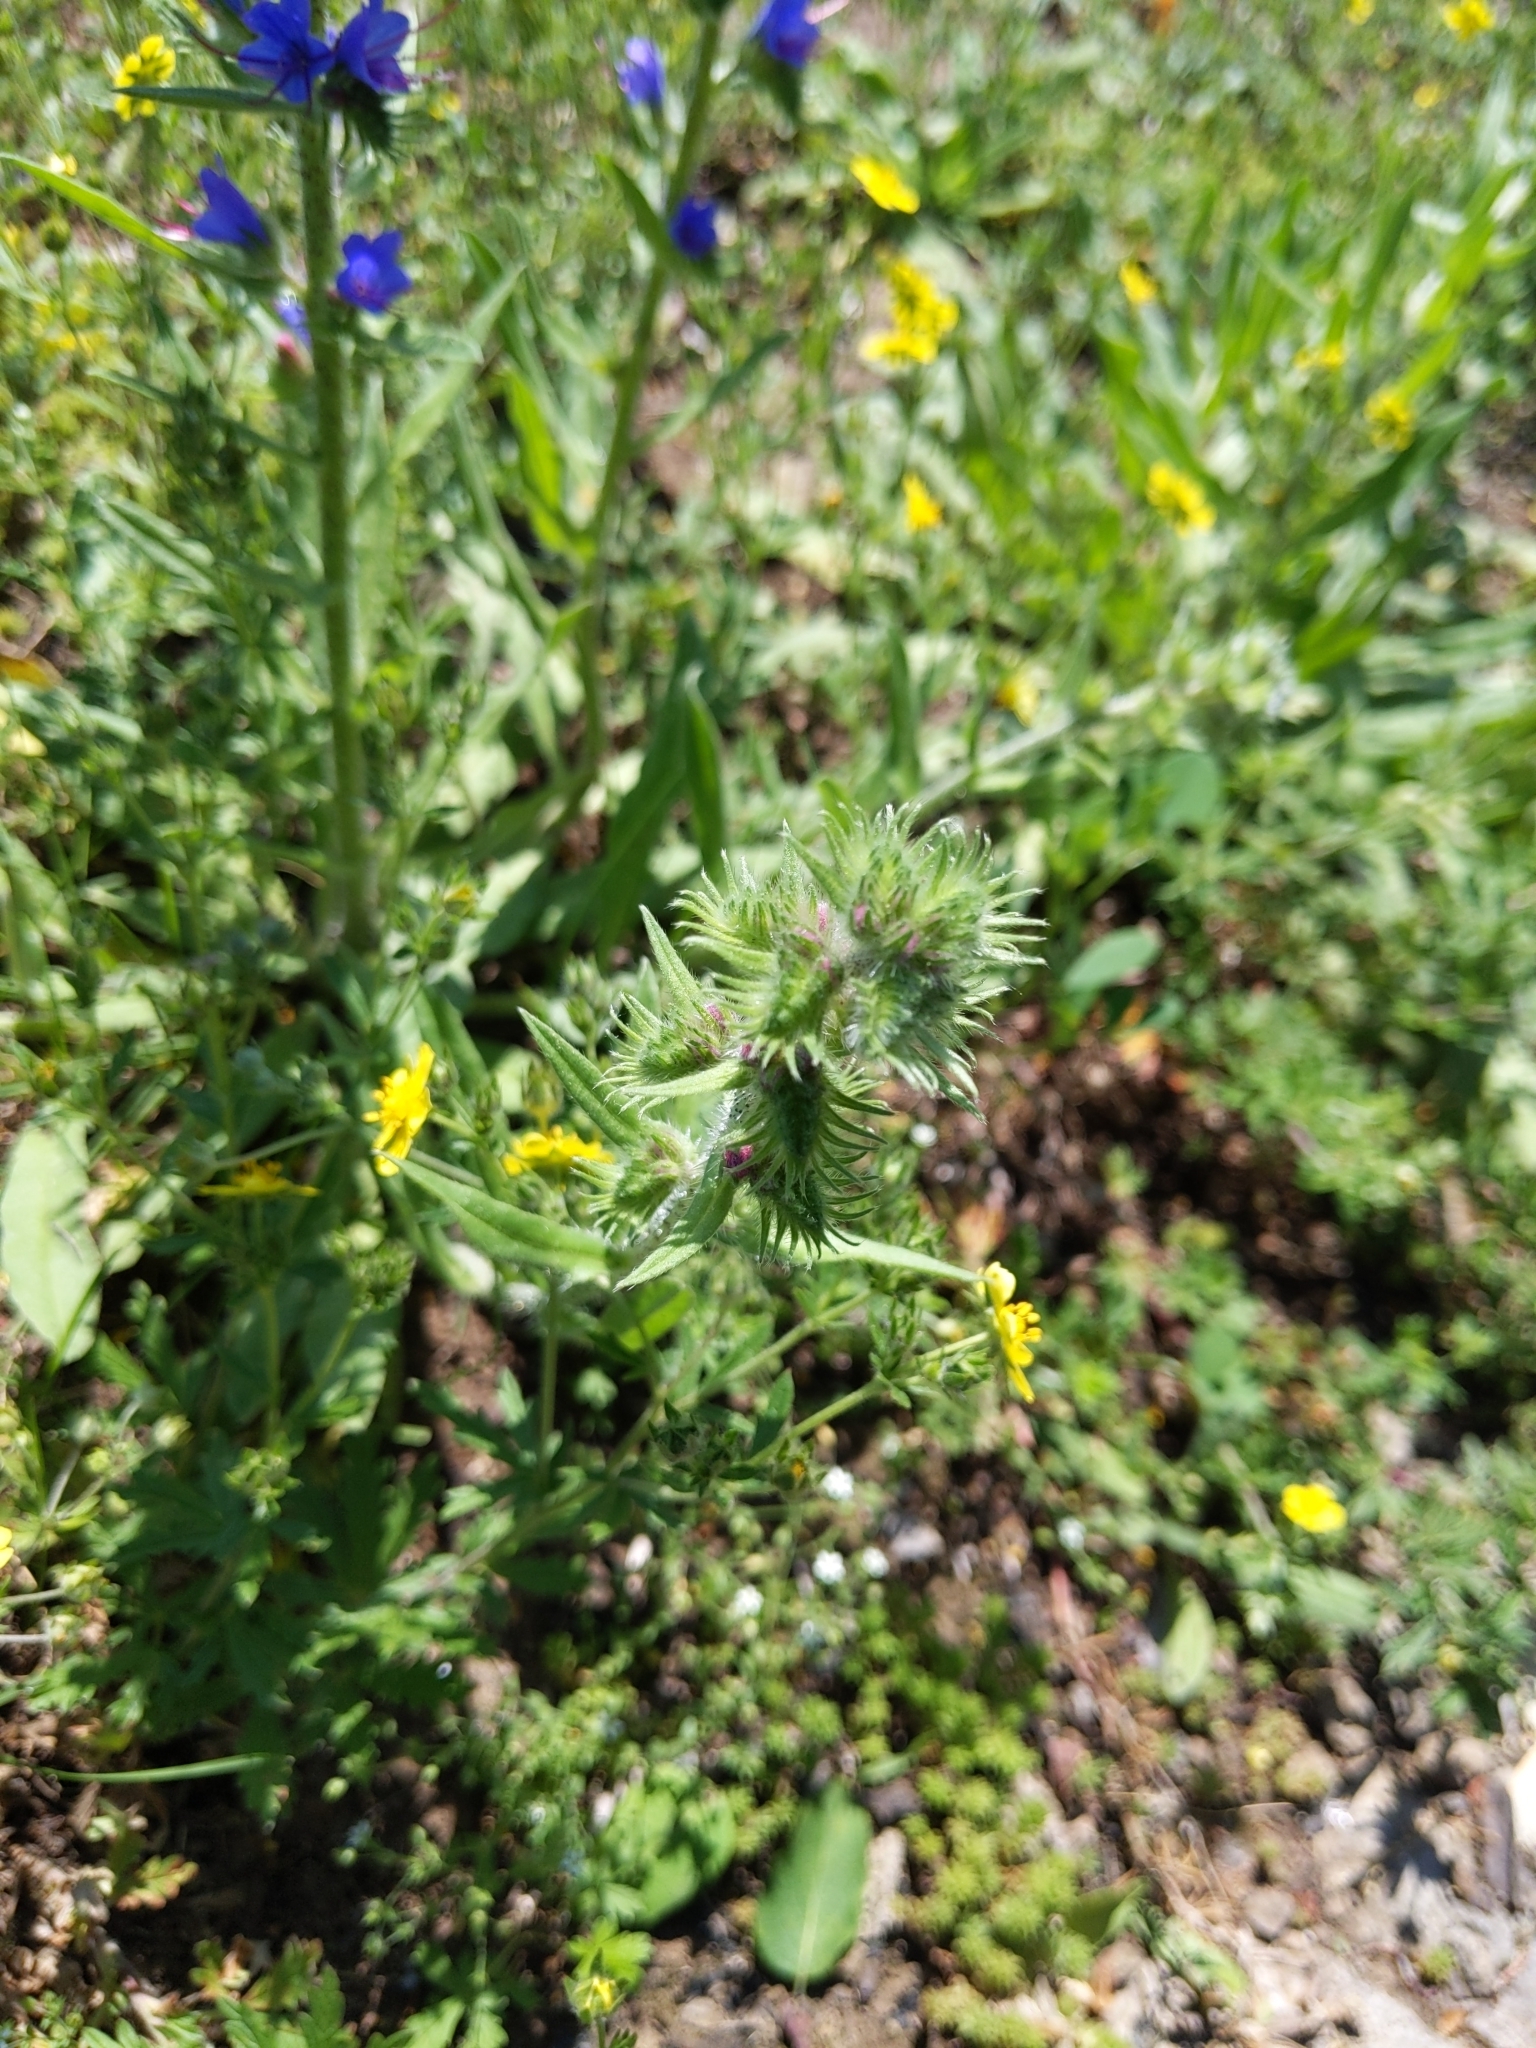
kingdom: Plantae
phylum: Tracheophyta
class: Magnoliopsida
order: Boraginales
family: Boraginaceae
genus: Echium
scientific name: Echium vulgare
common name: Common viper's bugloss
